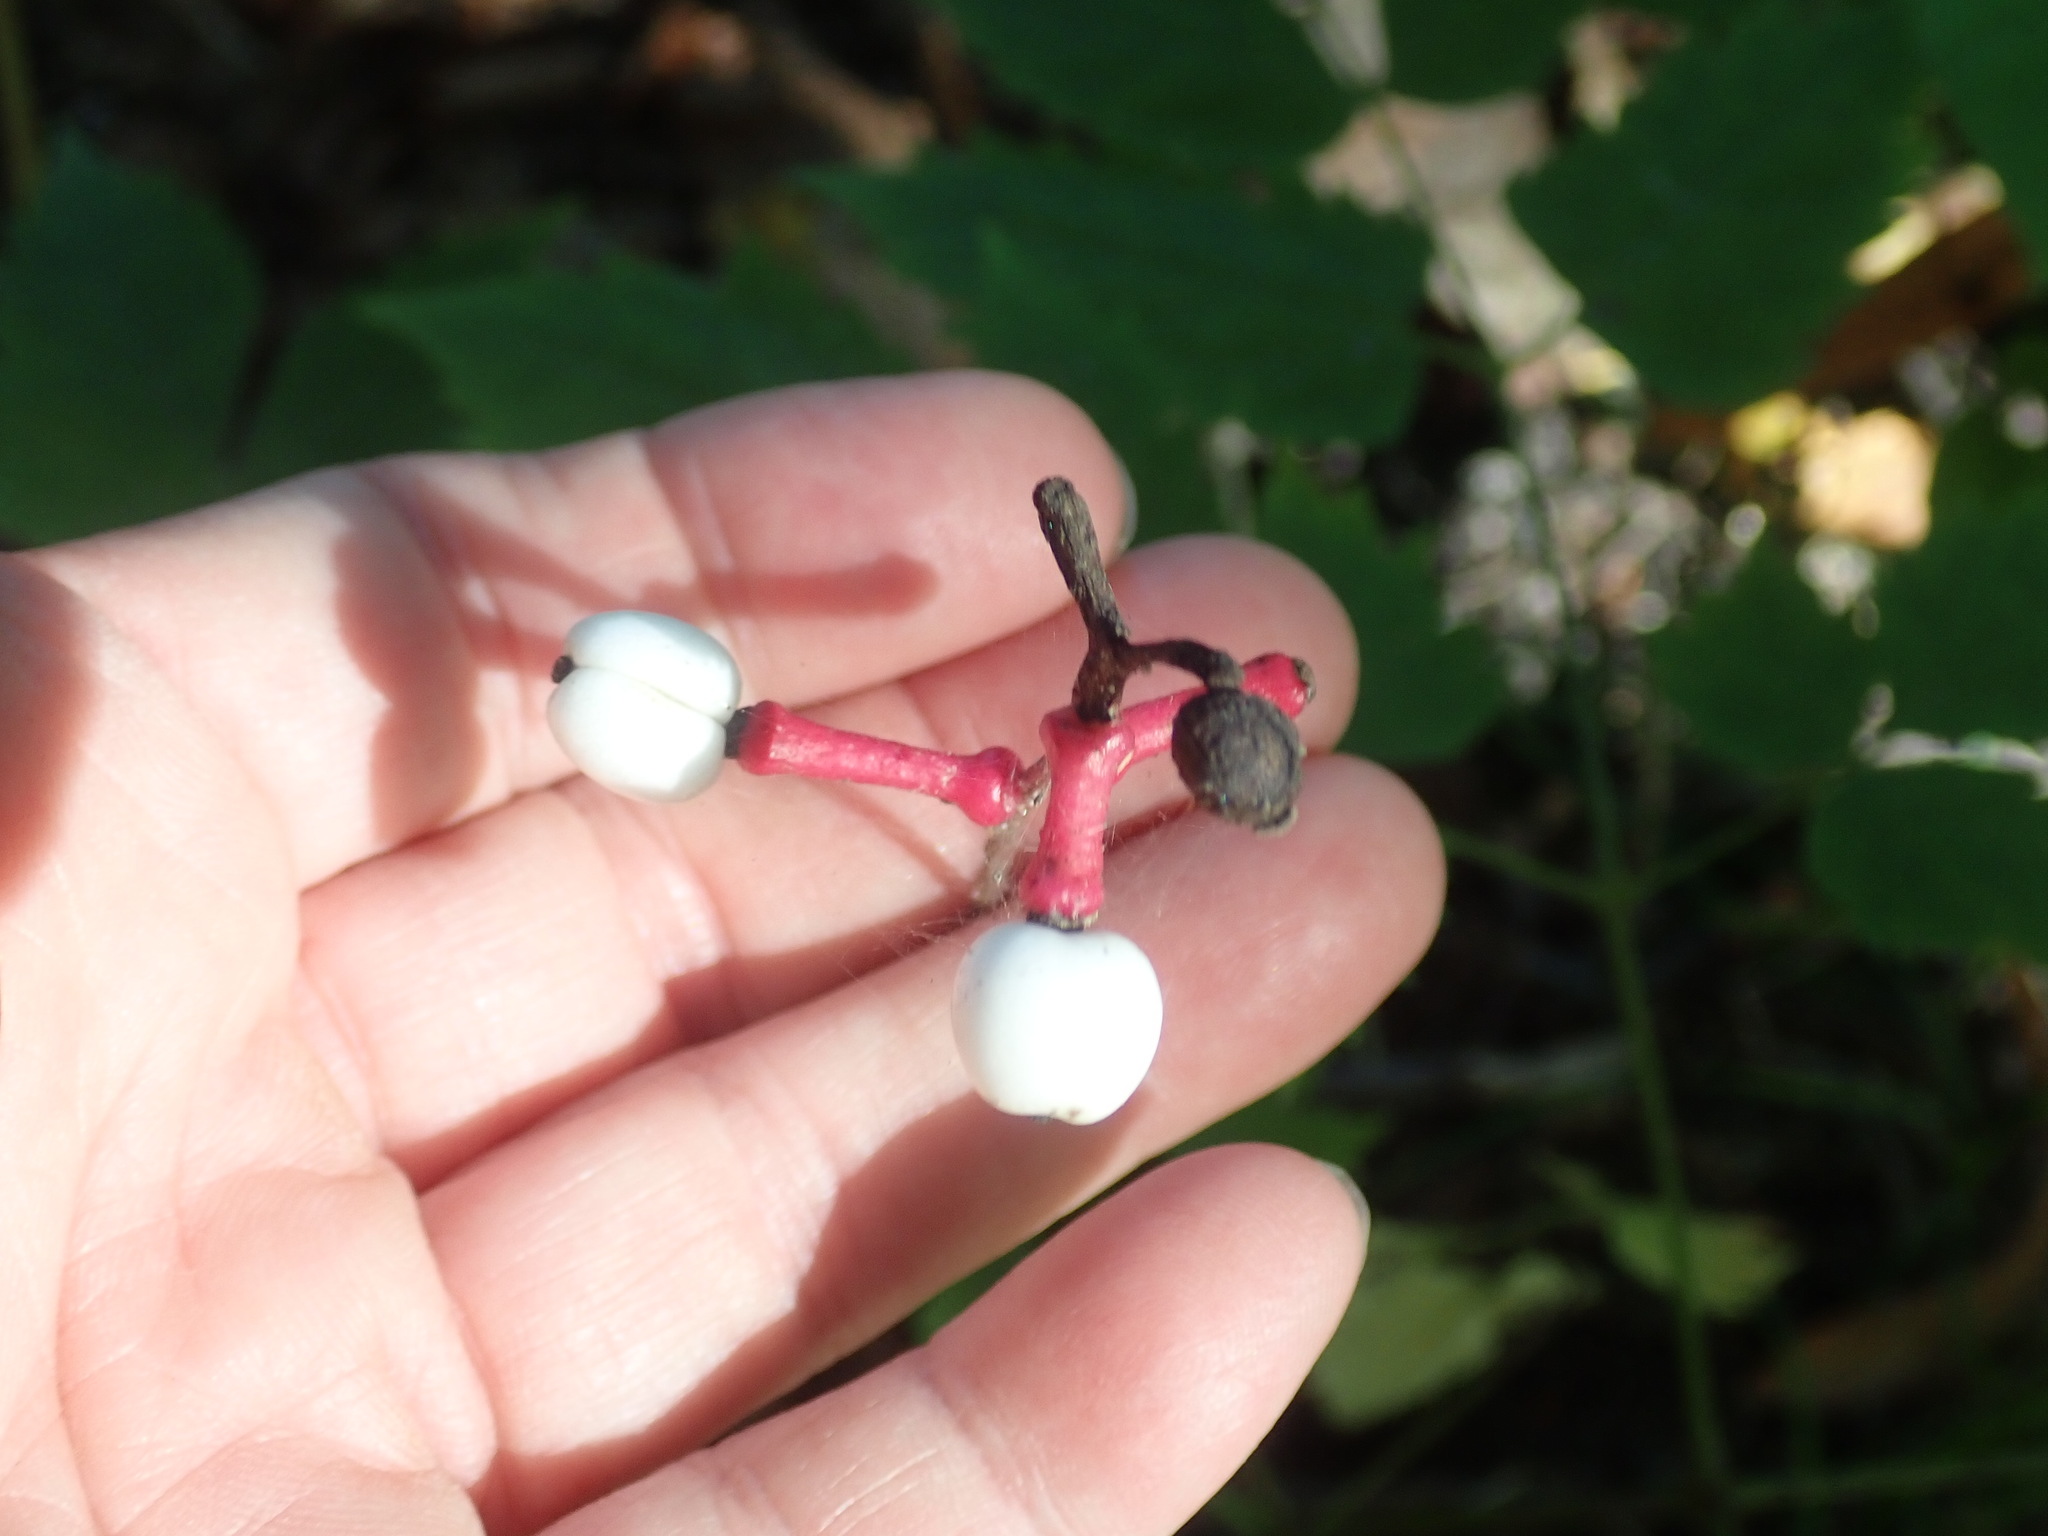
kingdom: Plantae
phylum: Tracheophyta
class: Magnoliopsida
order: Ranunculales
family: Ranunculaceae
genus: Actaea
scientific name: Actaea pachypoda
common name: Doll's-eyes
